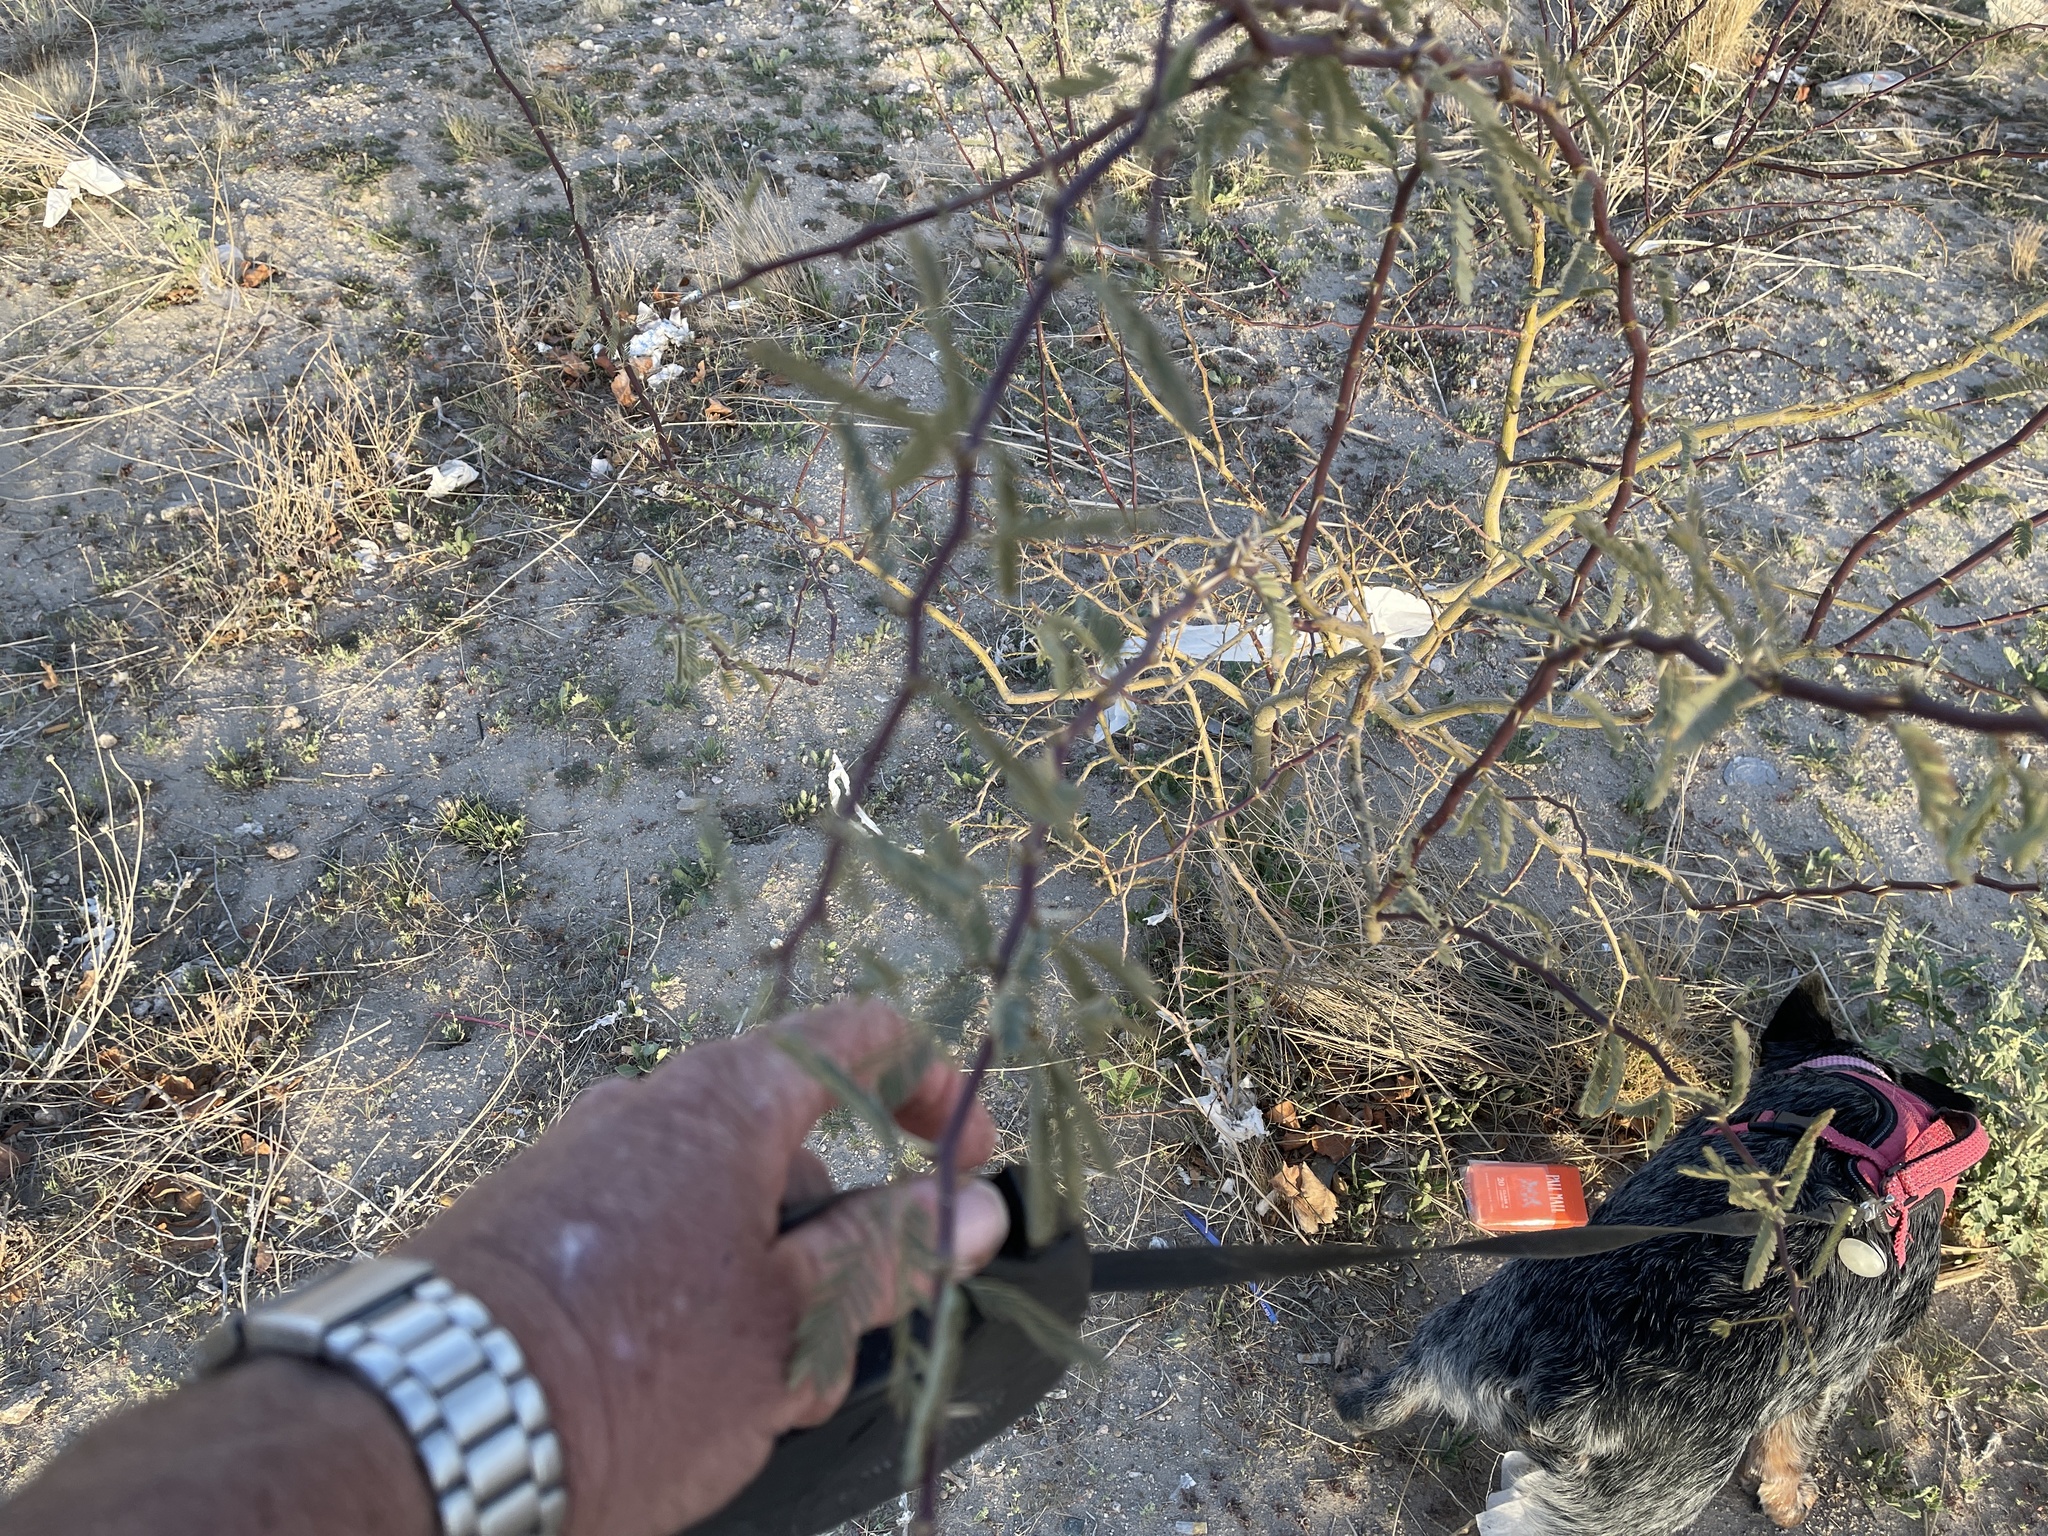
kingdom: Plantae
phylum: Tracheophyta
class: Magnoliopsida
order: Fabales
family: Fabaceae
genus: Prosopis
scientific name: Prosopis glandulosa
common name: Honey mesquite
